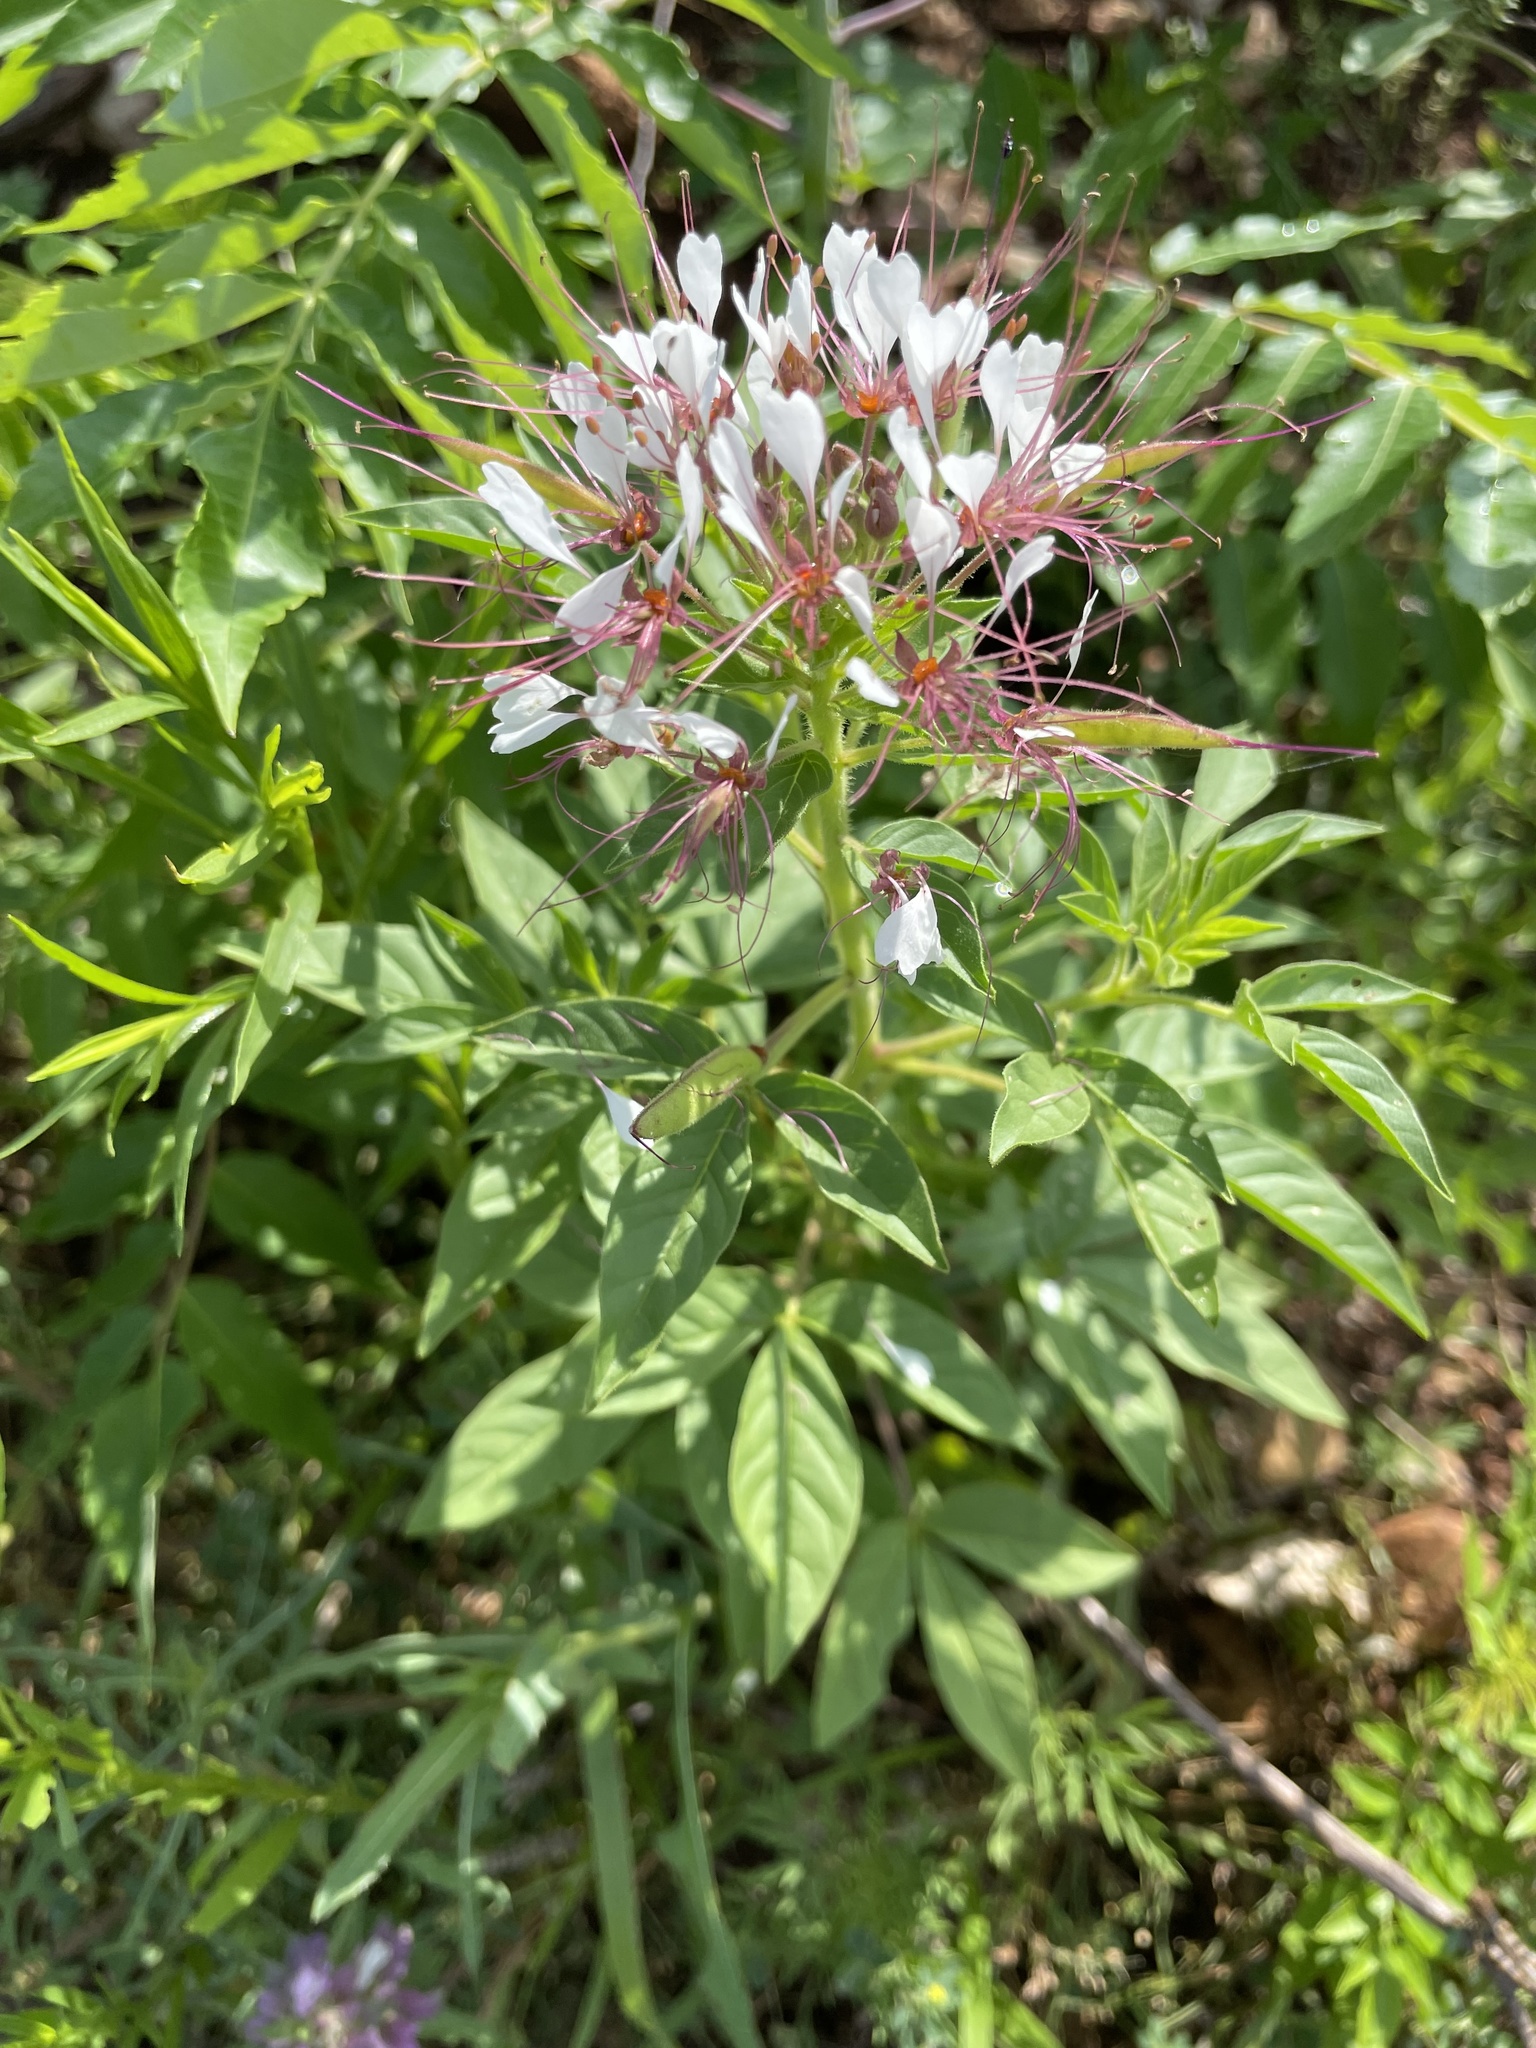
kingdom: Plantae
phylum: Tracheophyta
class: Magnoliopsida
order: Brassicales
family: Cleomaceae
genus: Polanisia
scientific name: Polanisia dodecandra
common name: Clammyweed
